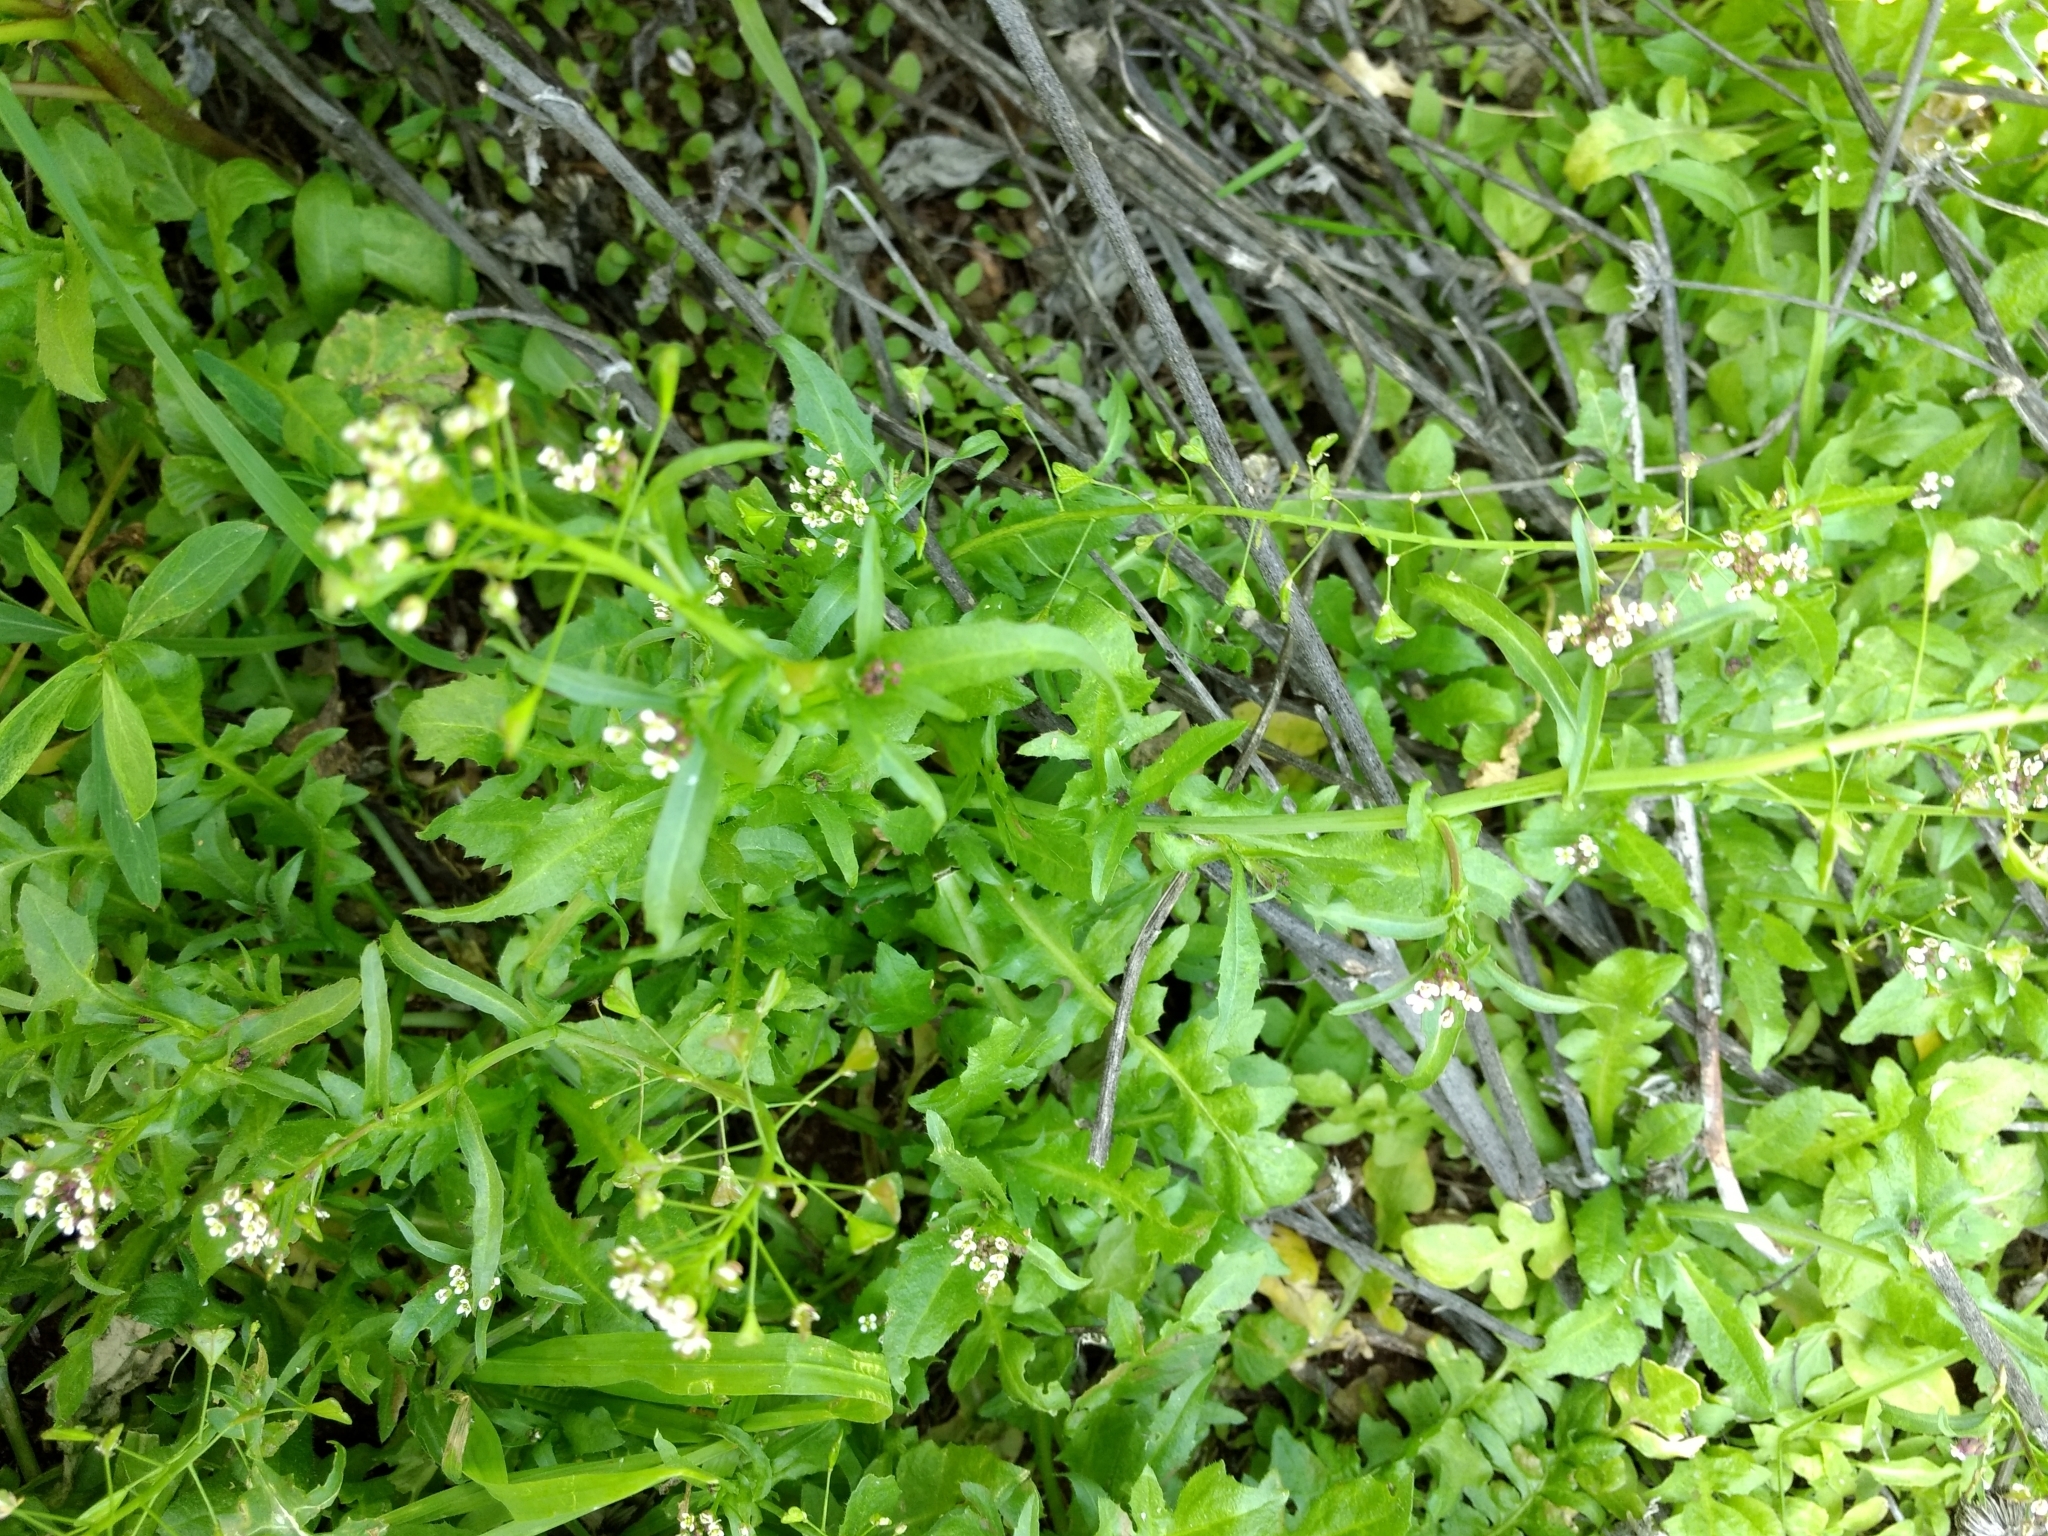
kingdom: Plantae
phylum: Tracheophyta
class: Magnoliopsida
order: Brassicales
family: Brassicaceae
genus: Capsella
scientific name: Capsella bursa-pastoris
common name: Shepherd's purse
